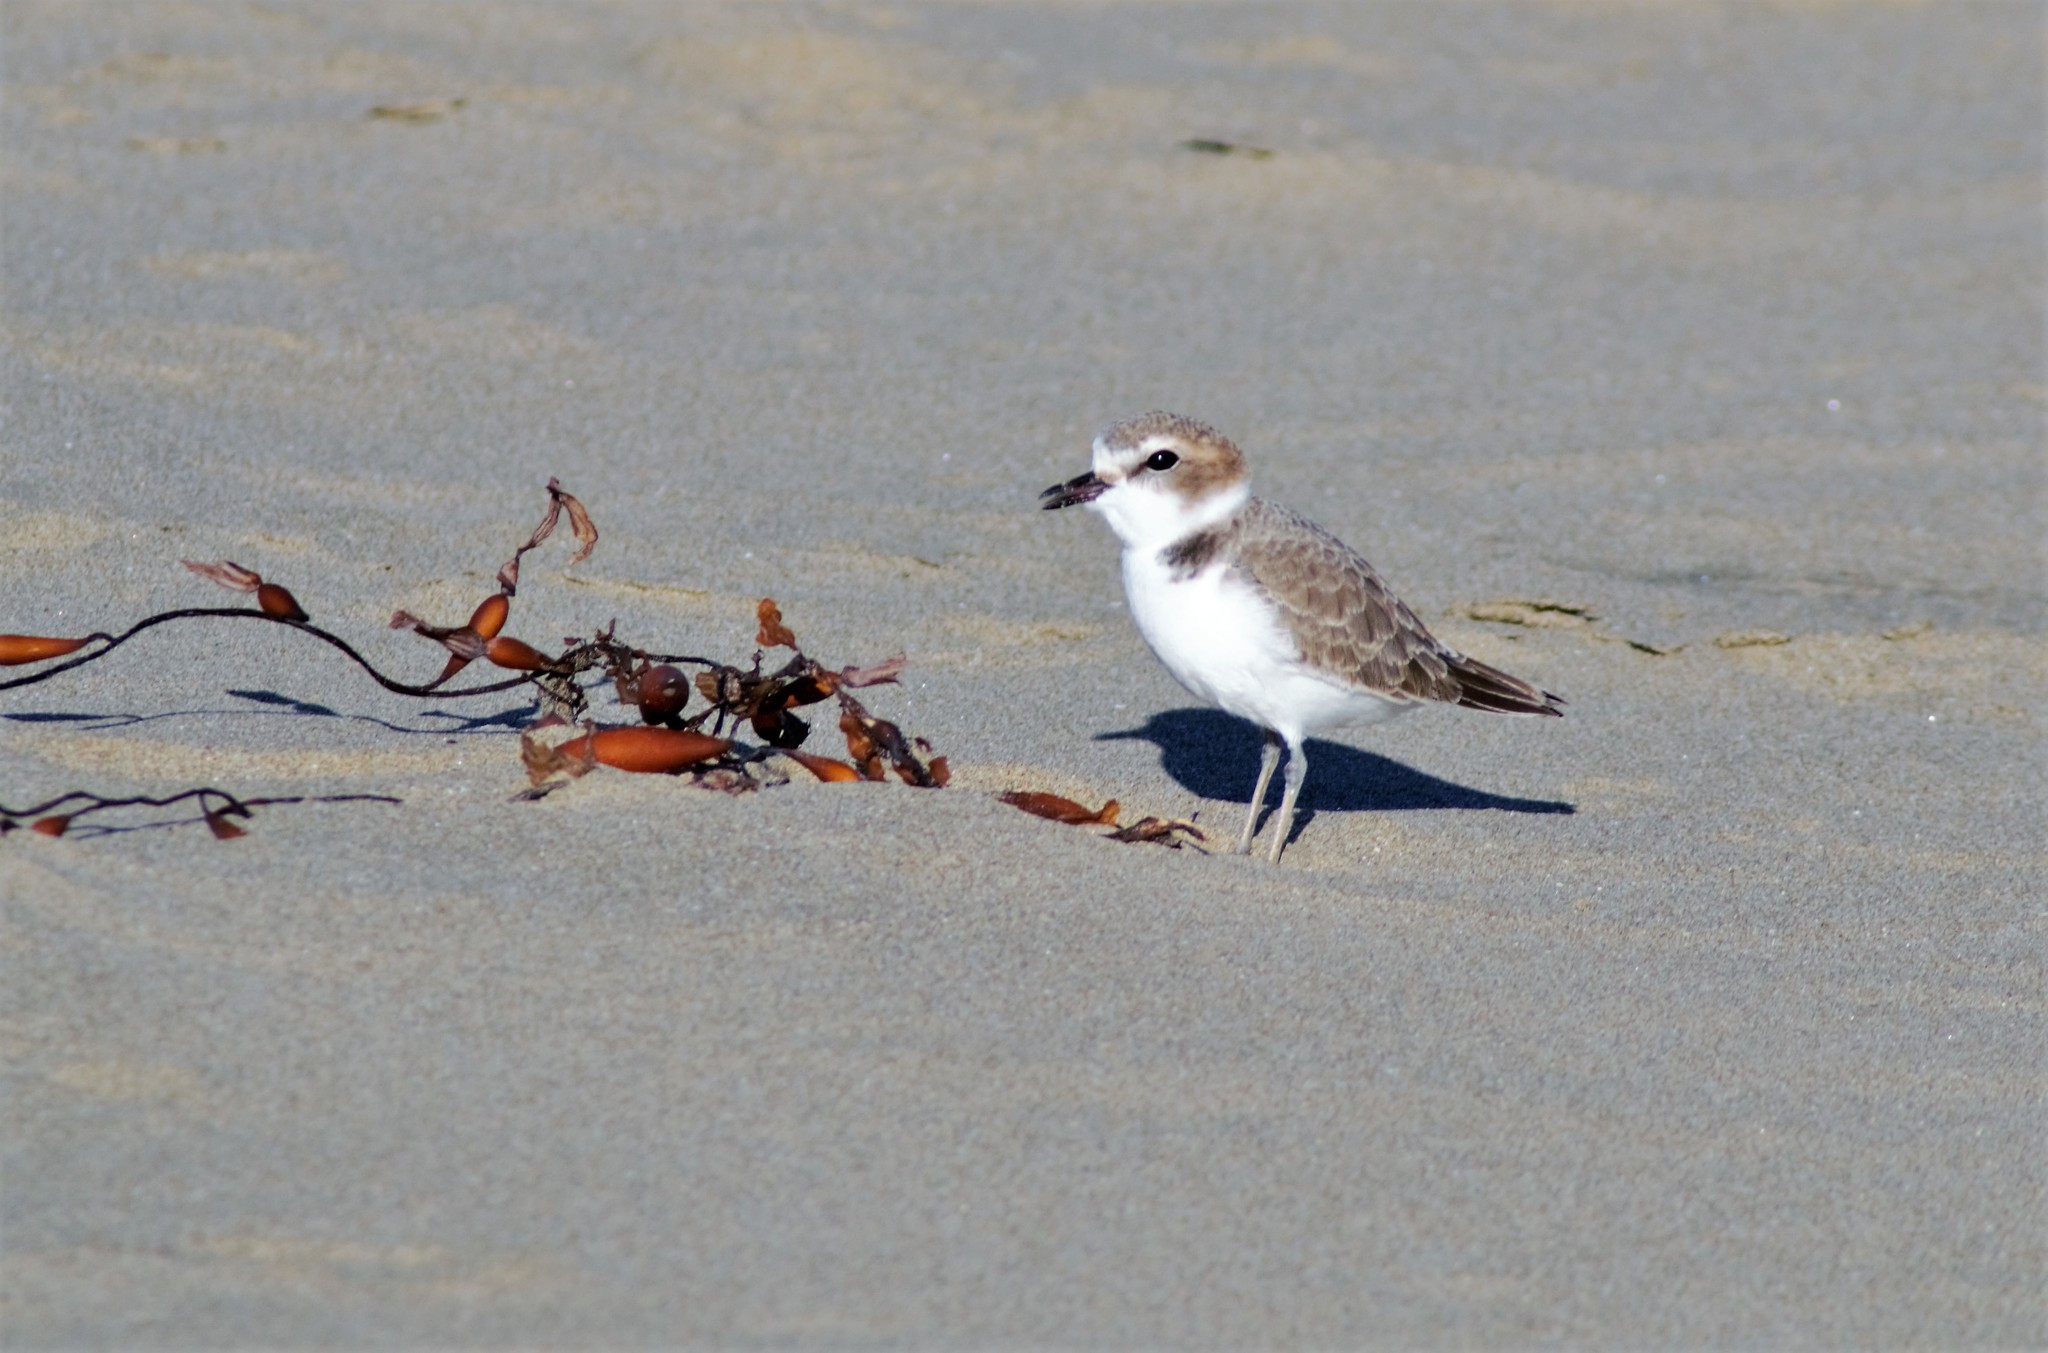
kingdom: Animalia
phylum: Chordata
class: Aves
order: Charadriiformes
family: Charadriidae
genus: Anarhynchus
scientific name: Anarhynchus
